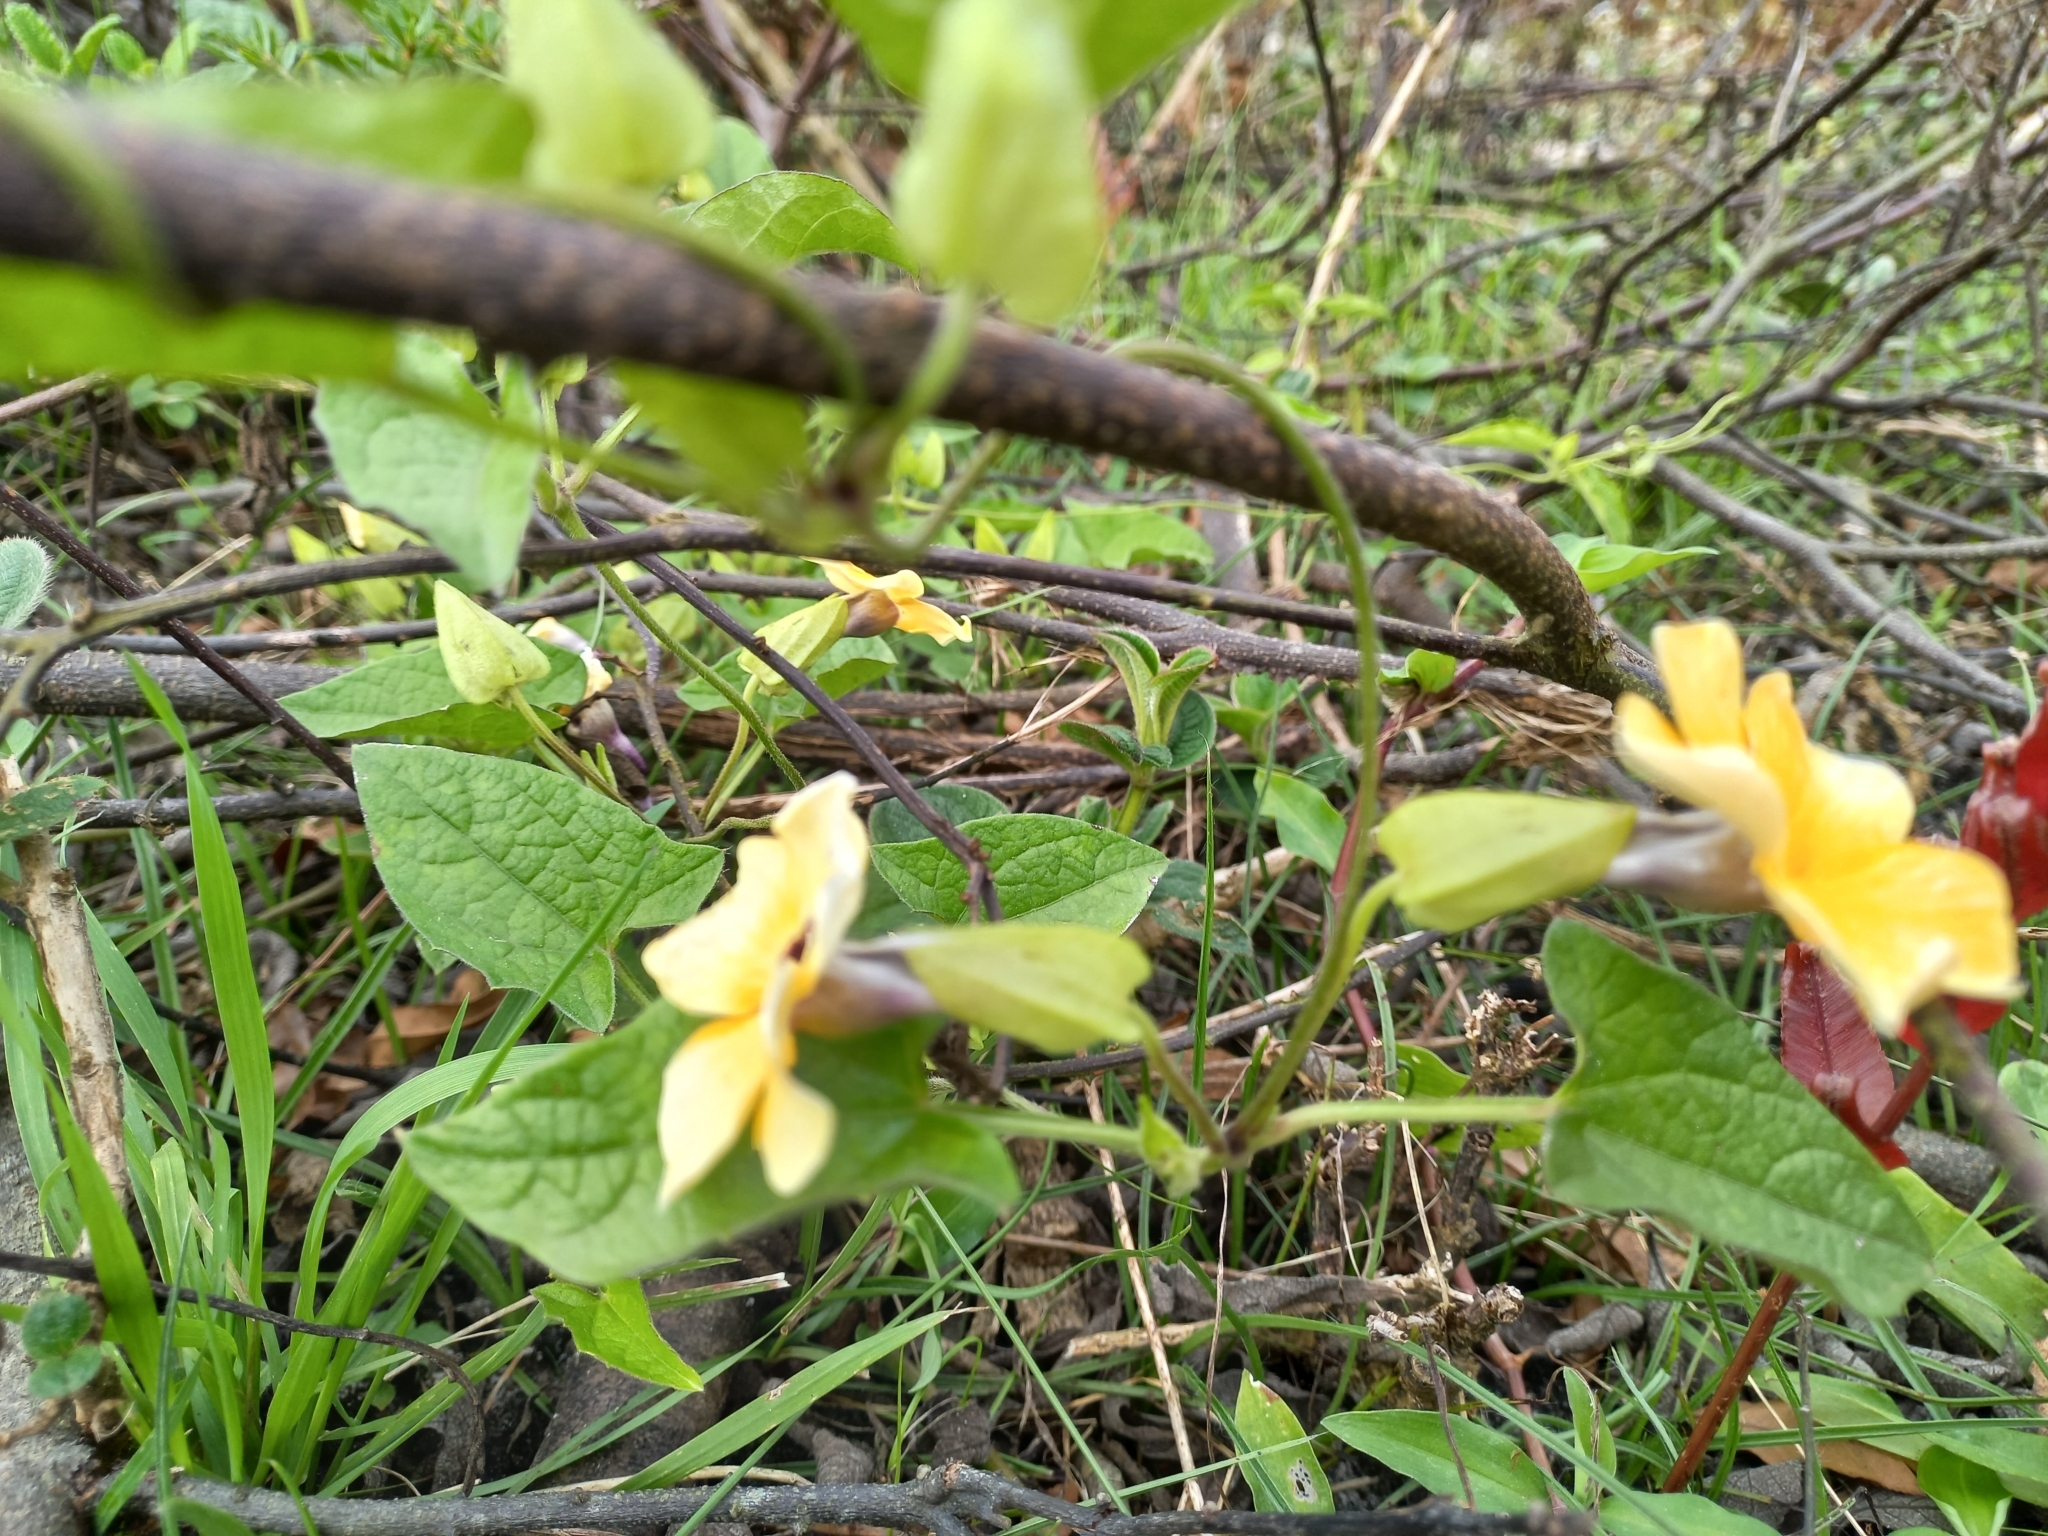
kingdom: Plantae
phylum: Tracheophyta
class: Magnoliopsida
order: Lamiales
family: Acanthaceae
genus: Thunbergia
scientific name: Thunbergia alata
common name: Blackeyed susan vine
